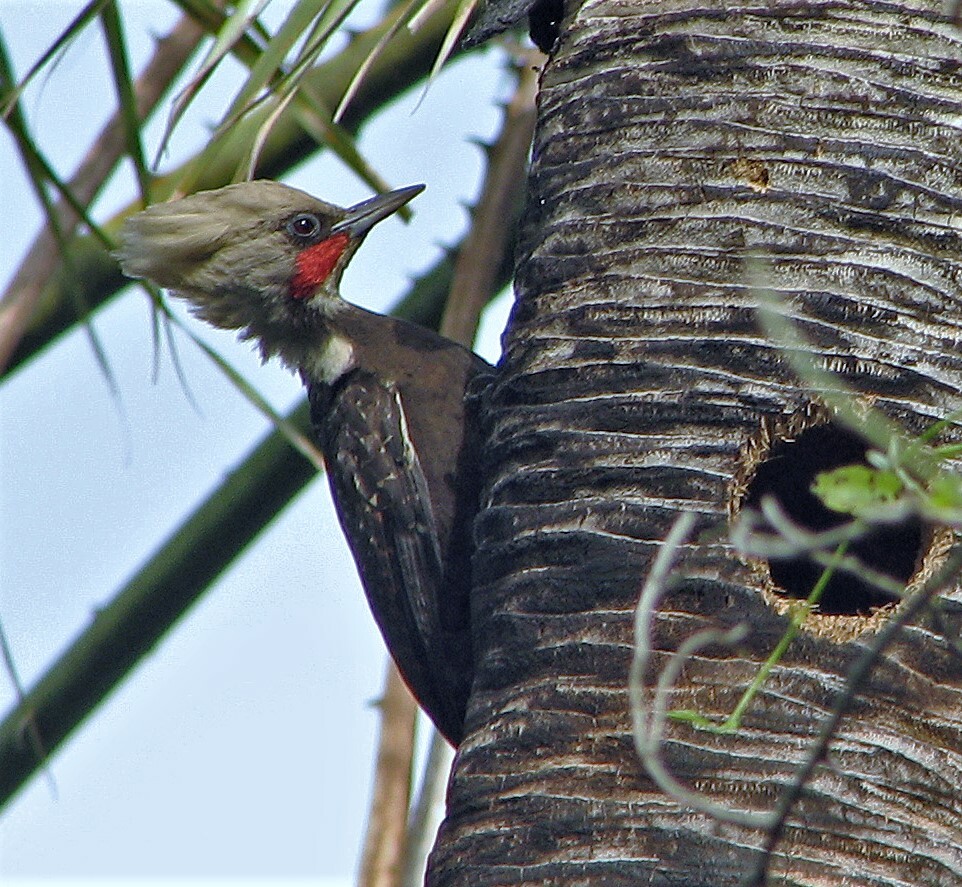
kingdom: Animalia
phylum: Chordata
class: Aves
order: Piciformes
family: Picidae
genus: Celeus
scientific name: Celeus lugubris
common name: Pale-crested woodpecker
